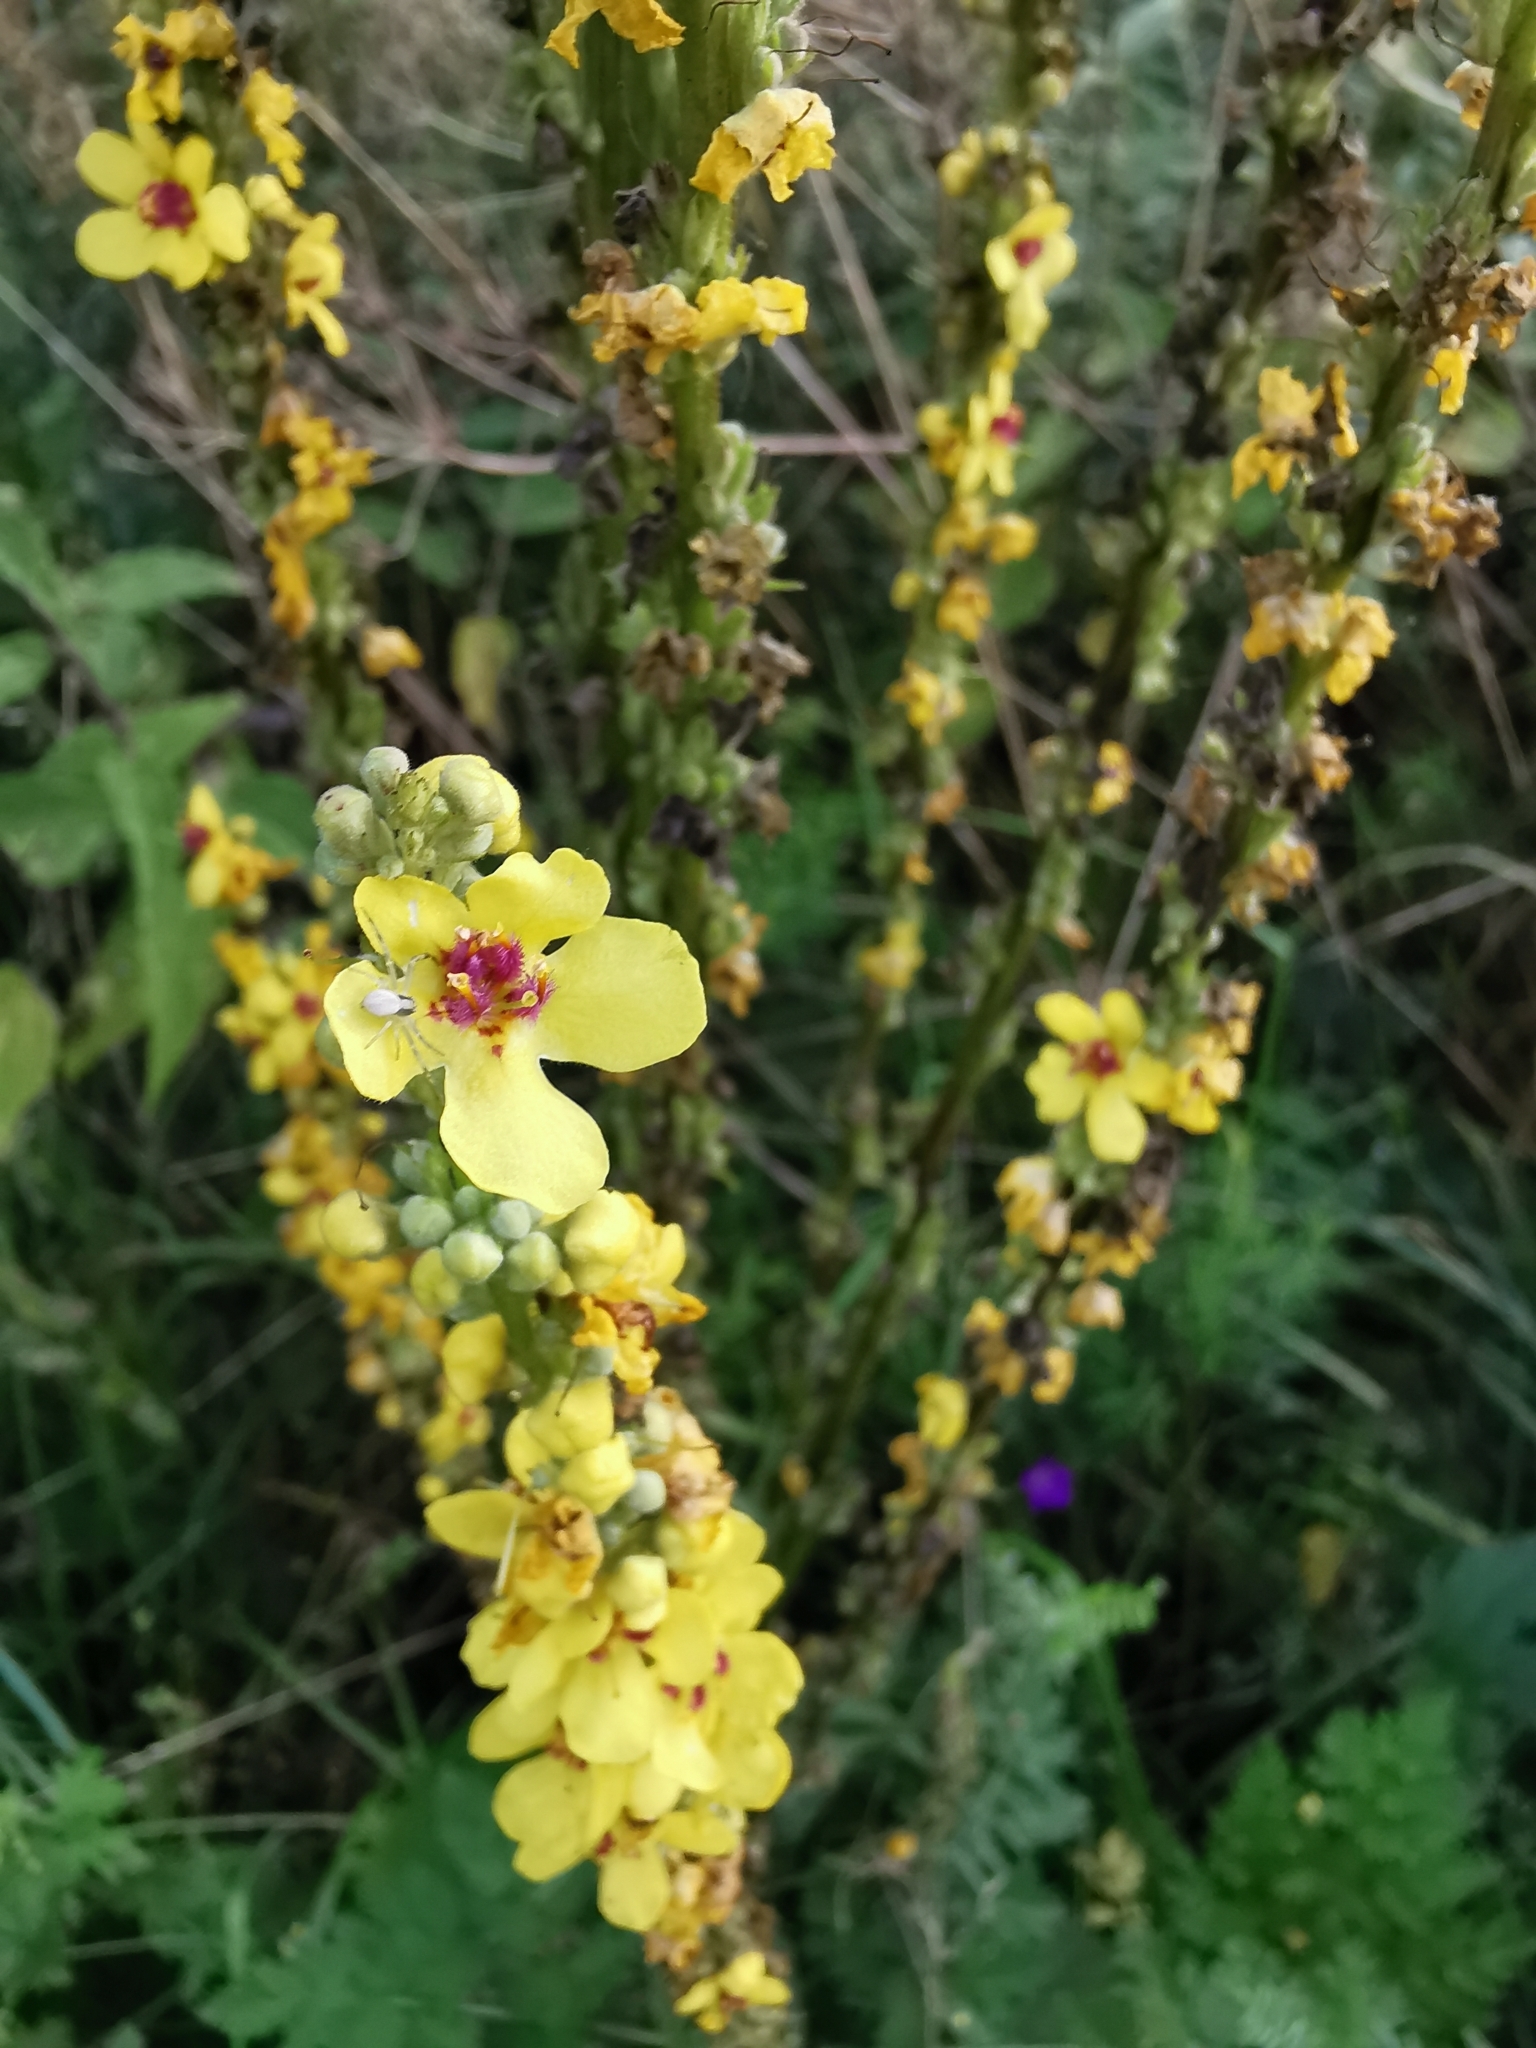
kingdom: Plantae
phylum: Tracheophyta
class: Magnoliopsida
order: Lamiales
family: Scrophulariaceae
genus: Verbascum
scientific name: Verbascum nigrum
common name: Dark mullein
